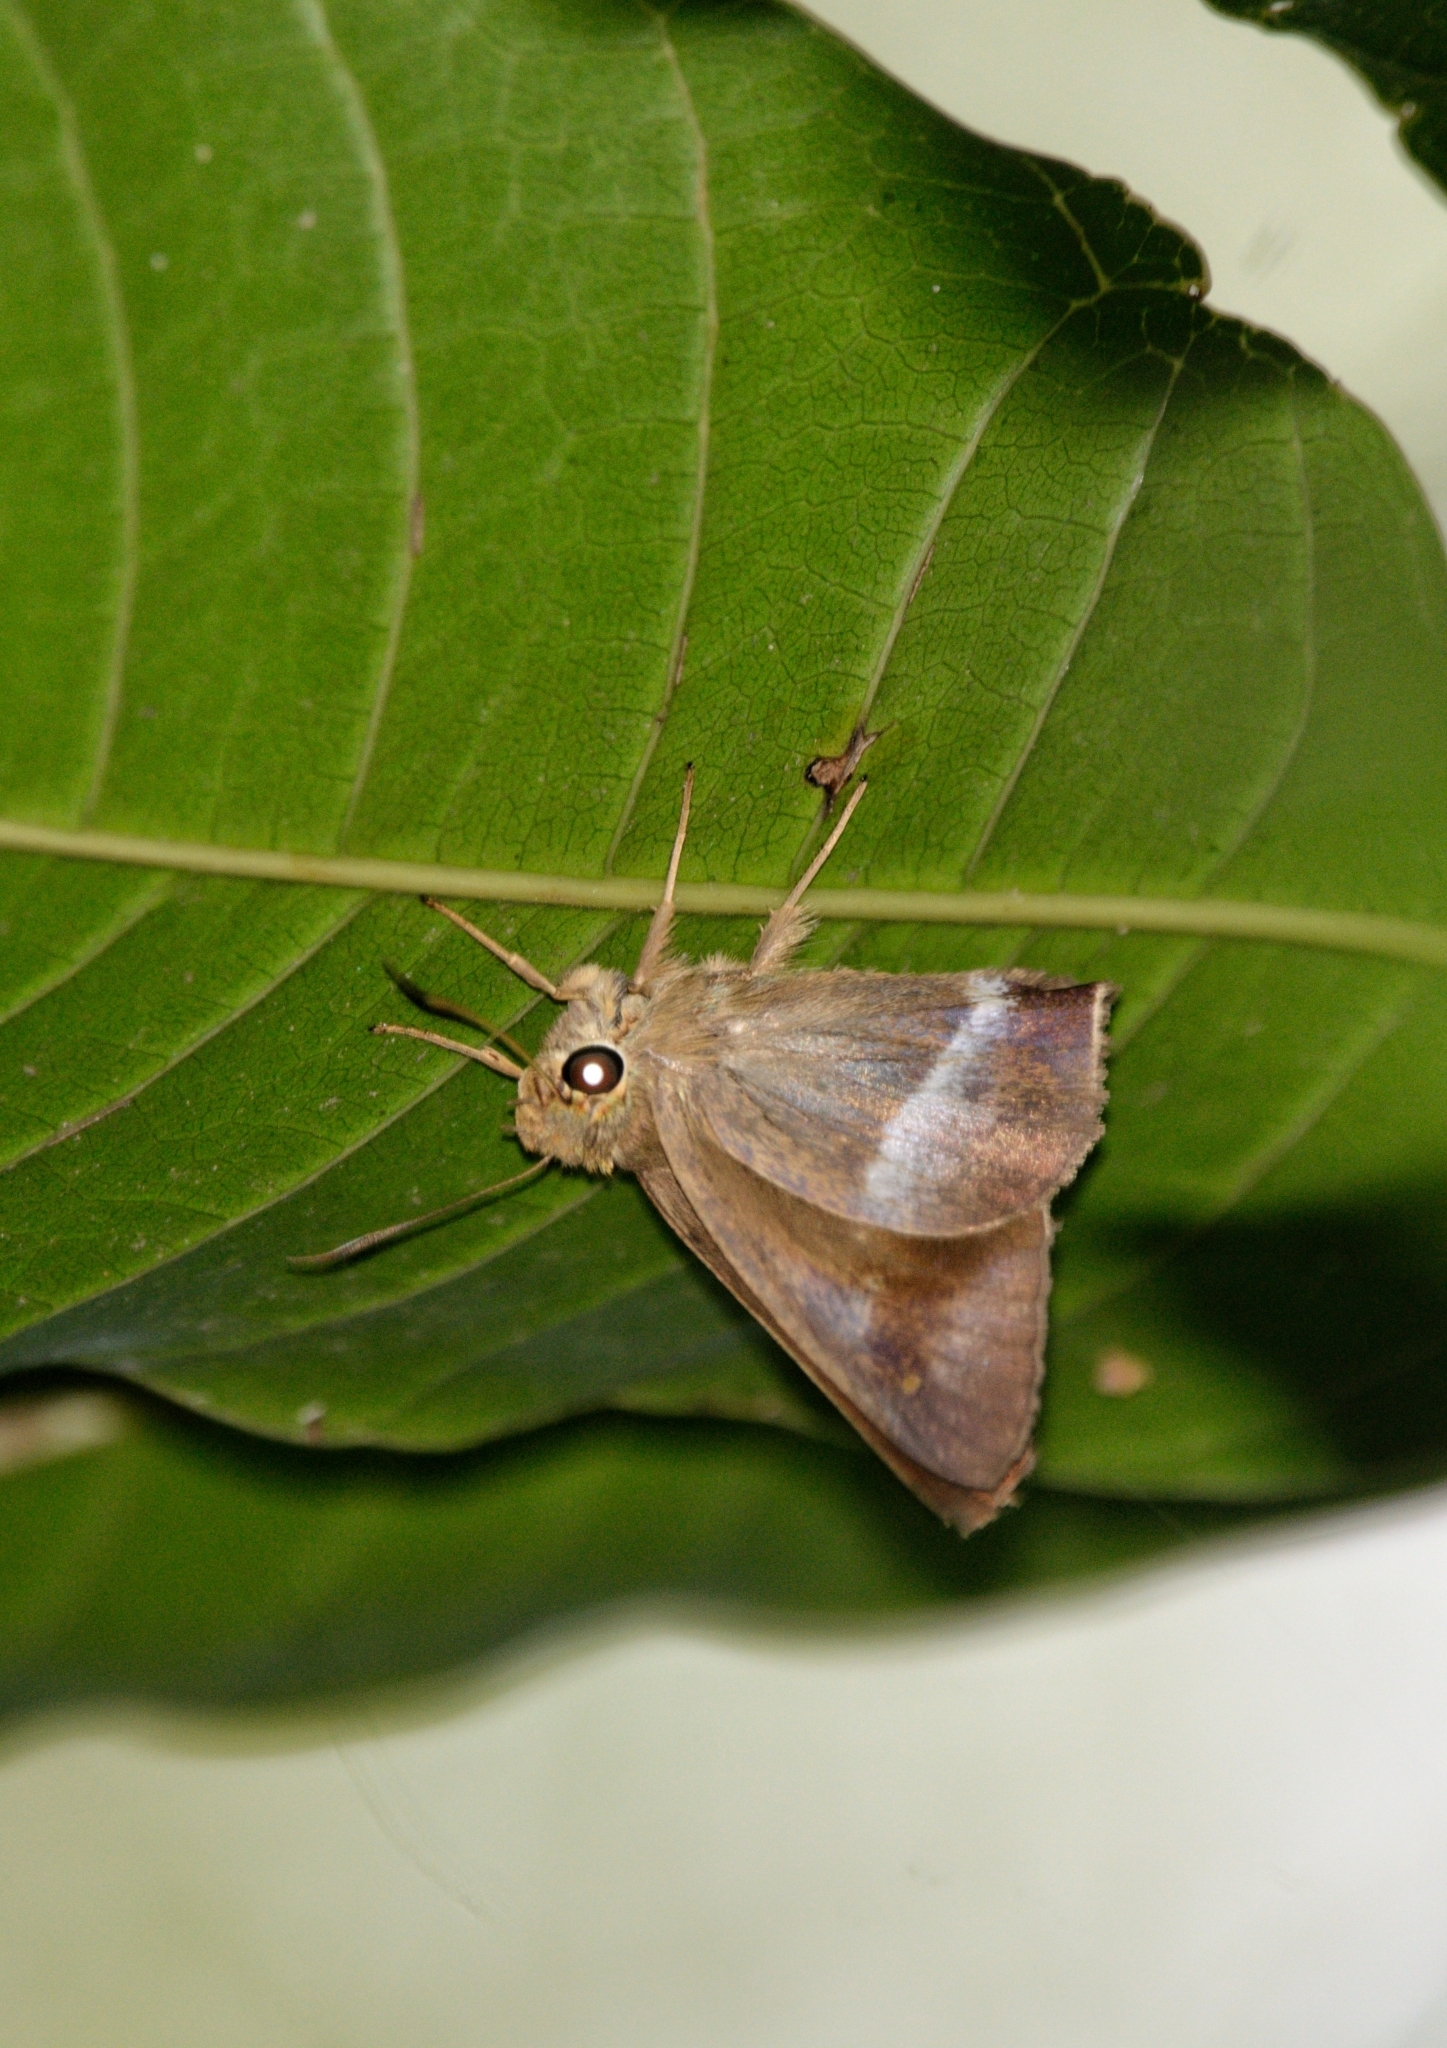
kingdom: Animalia
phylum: Arthropoda
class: Insecta
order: Lepidoptera
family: Hesperiidae
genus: Hasora
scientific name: Hasora chromus
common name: Common banded awl
